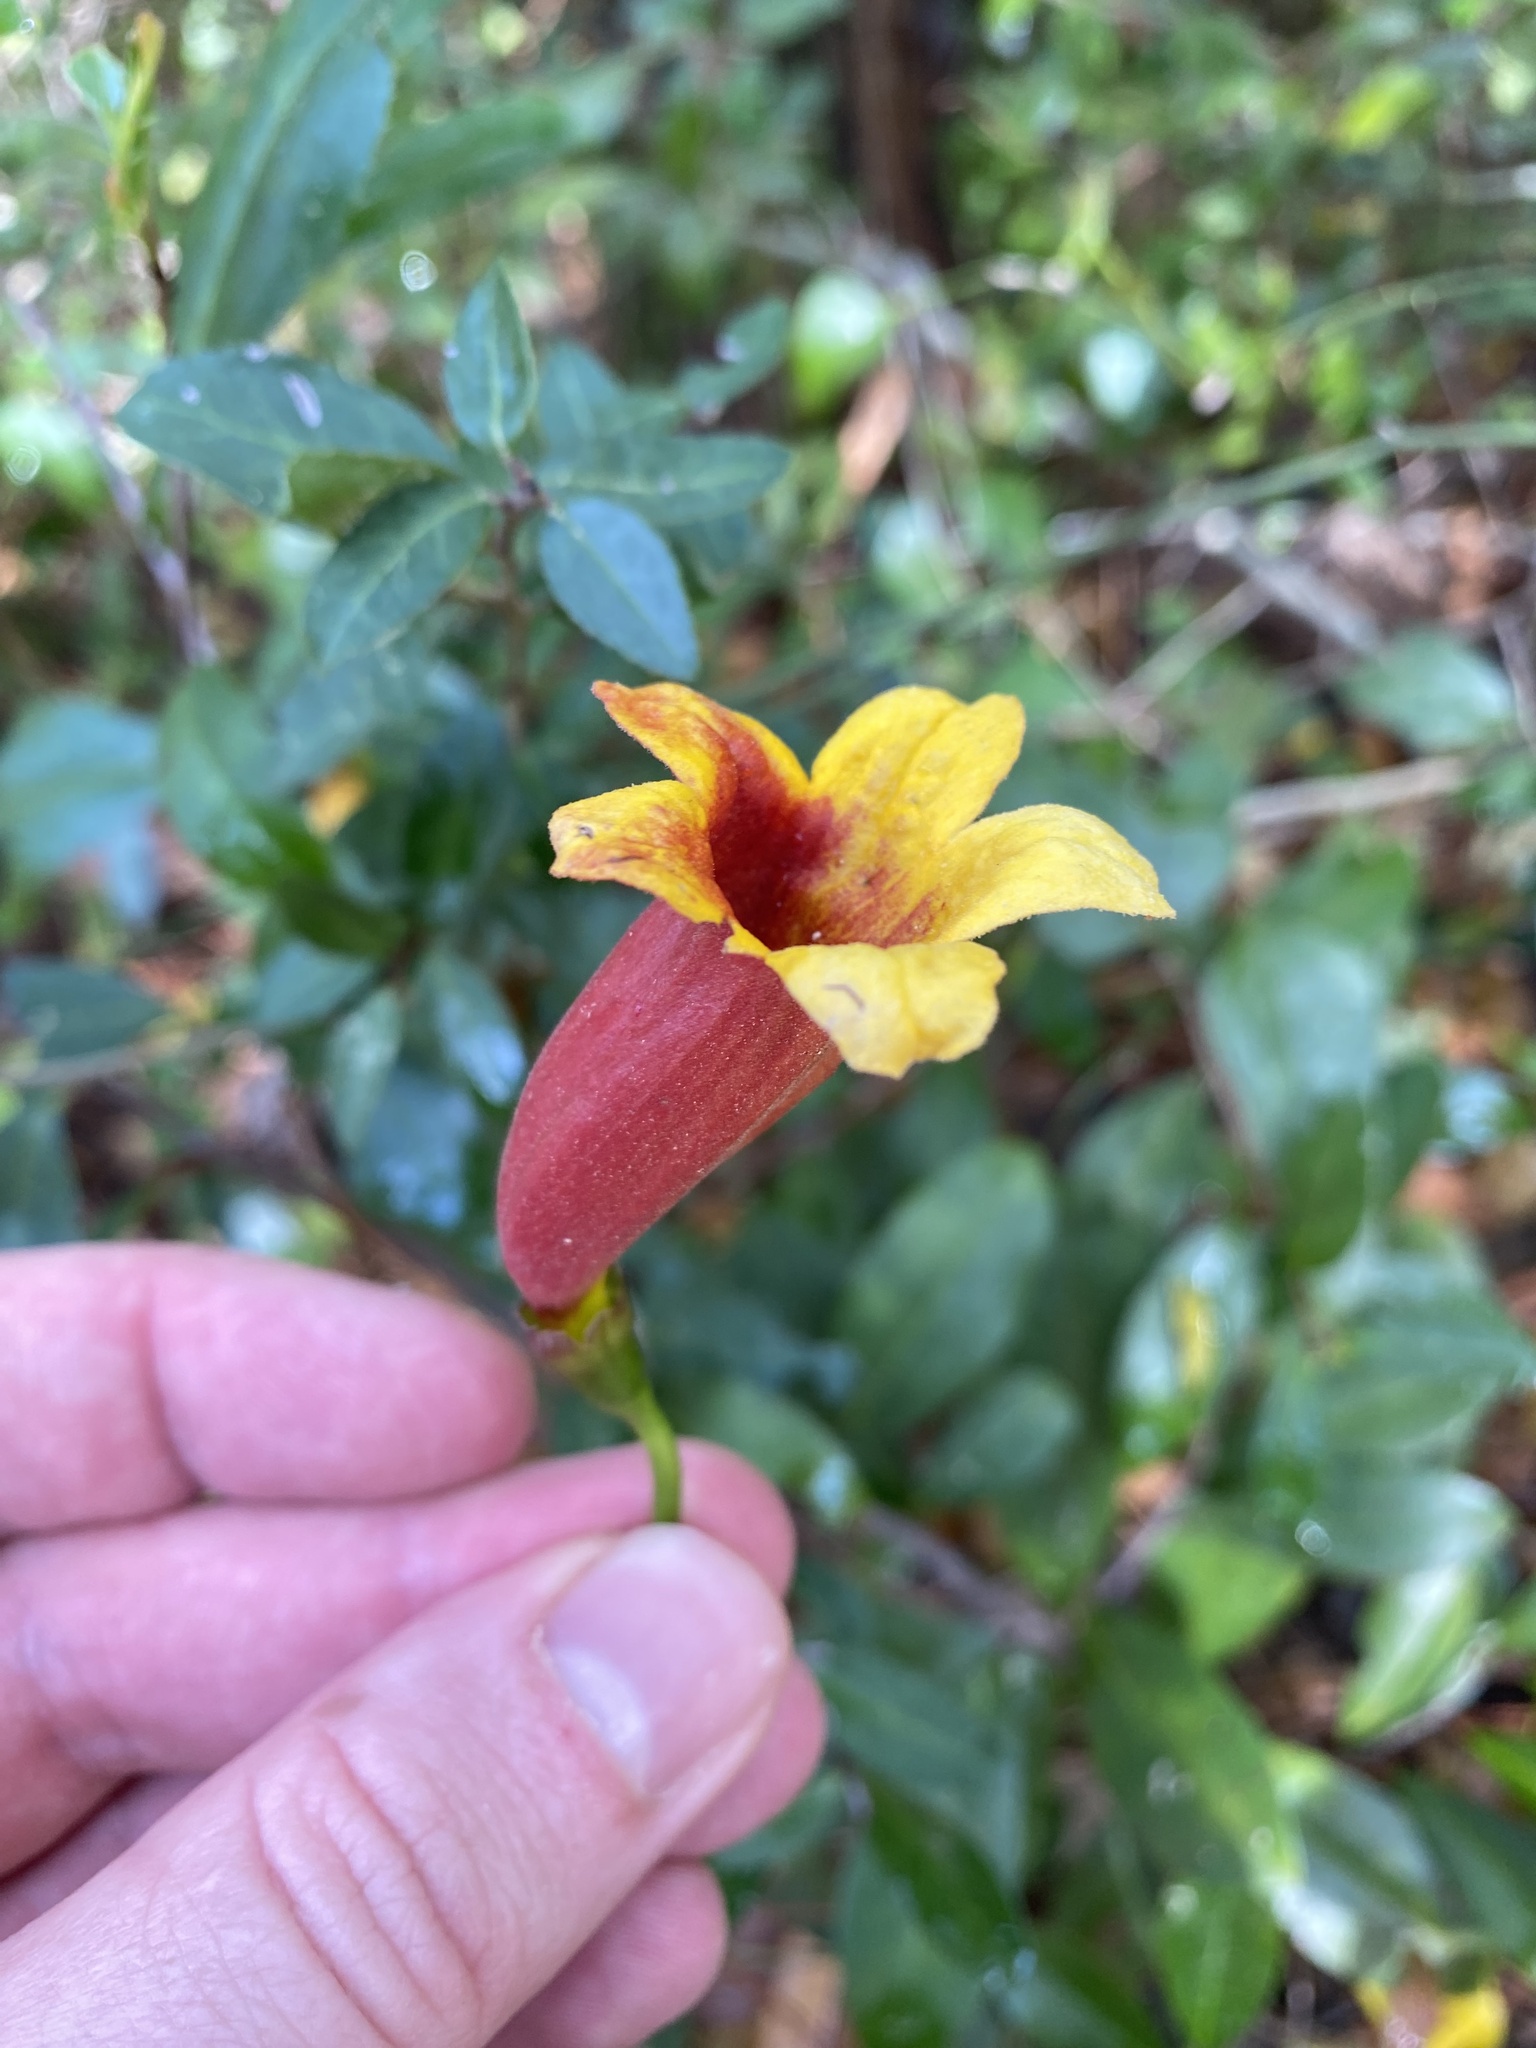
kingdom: Plantae
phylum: Tracheophyta
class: Magnoliopsida
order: Lamiales
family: Bignoniaceae
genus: Bignonia
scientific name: Bignonia capreolata
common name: Crossvine
